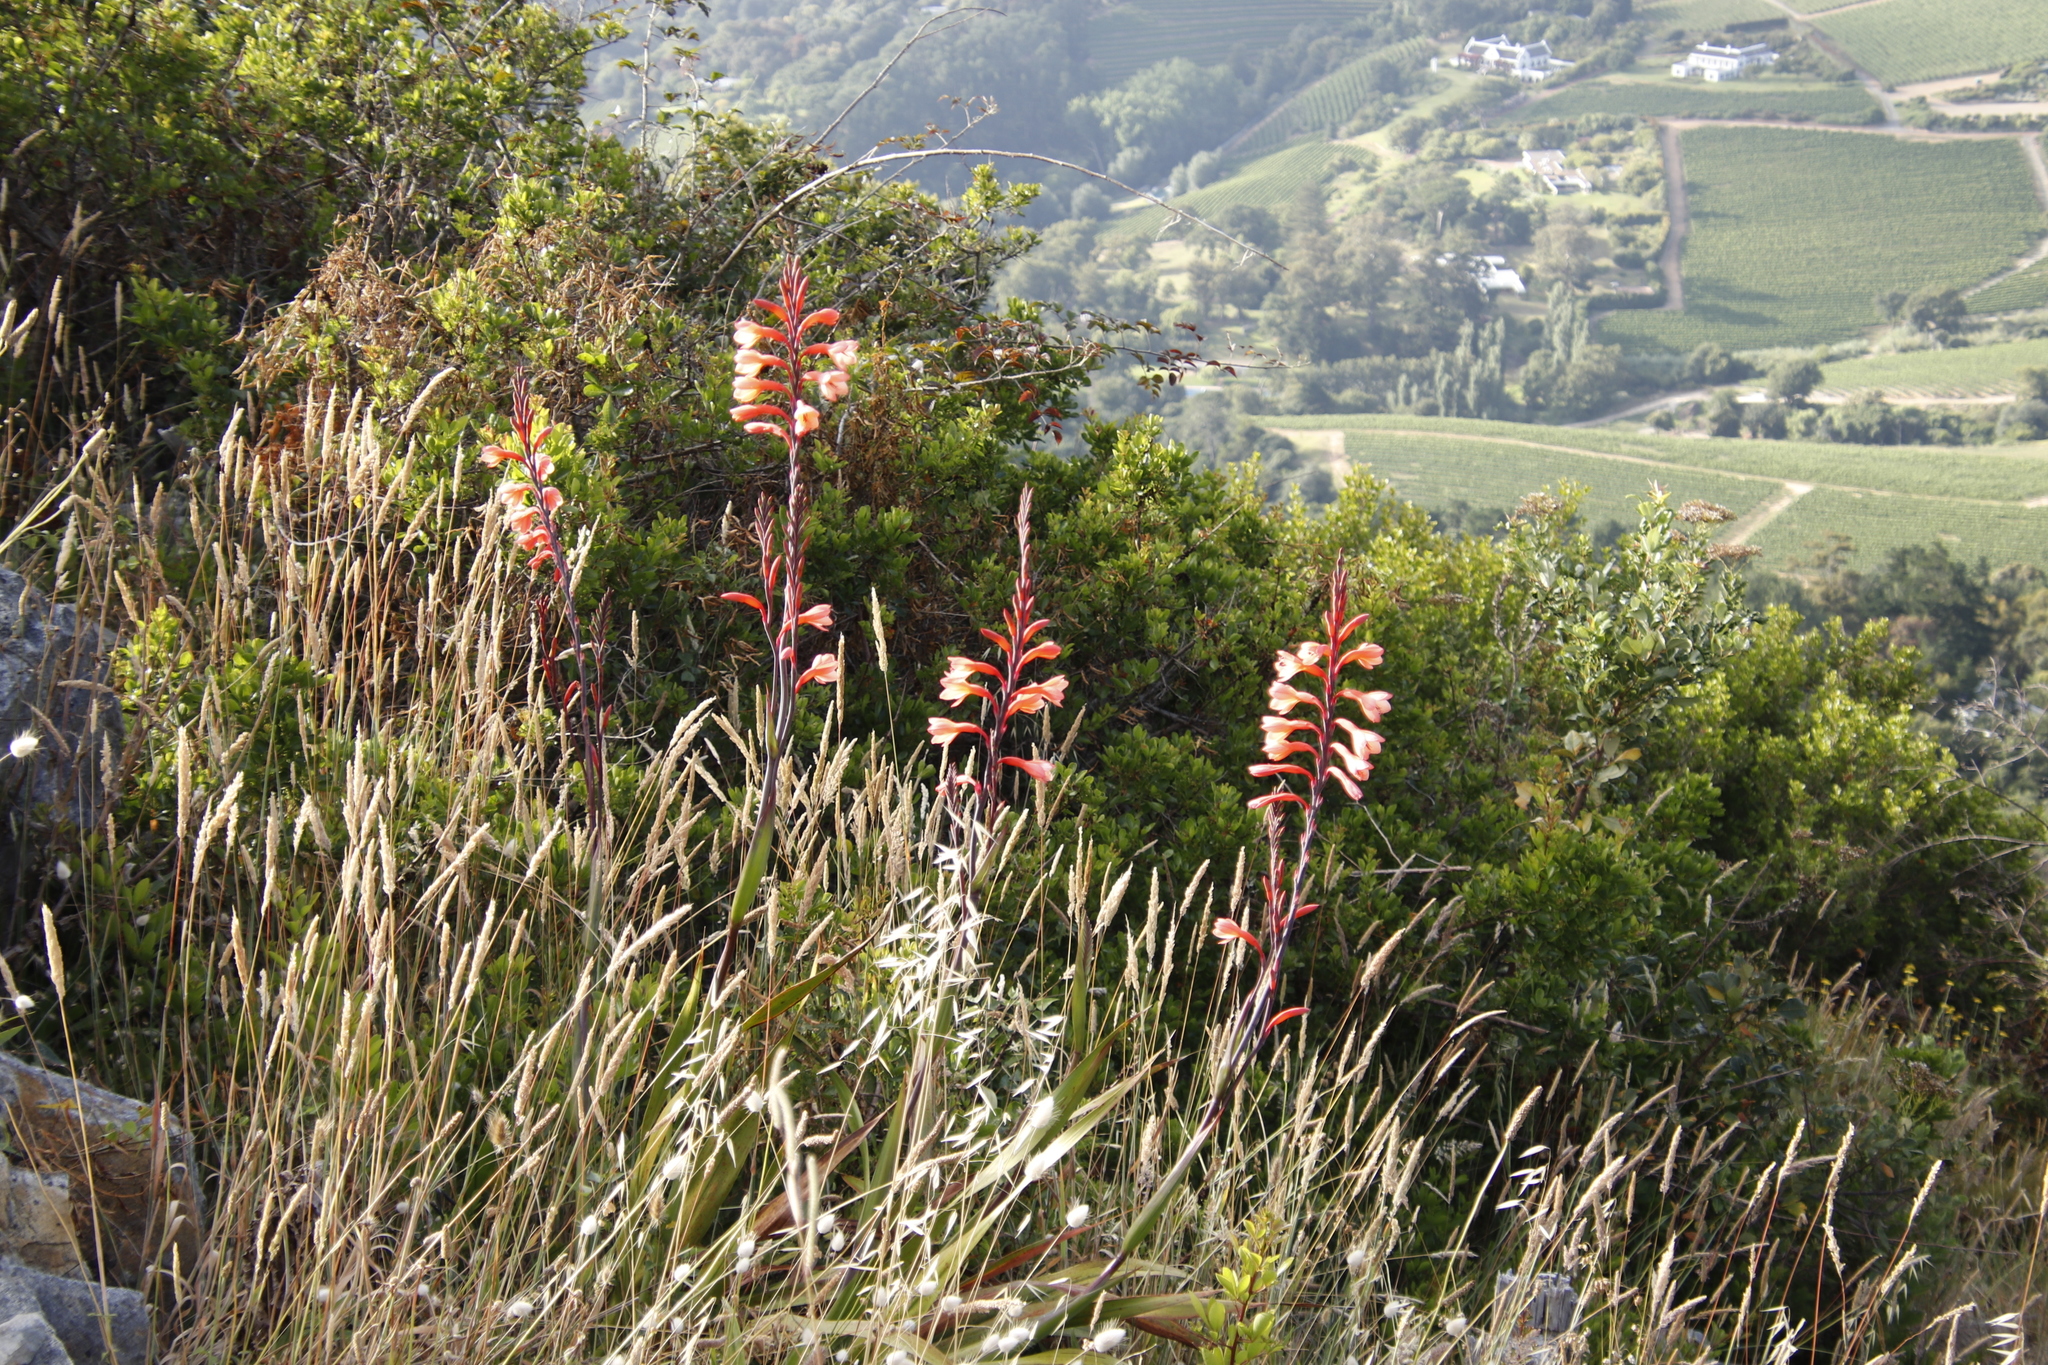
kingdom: Plantae
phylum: Tracheophyta
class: Liliopsida
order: Asparagales
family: Iridaceae
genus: Watsonia
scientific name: Watsonia tabularis
